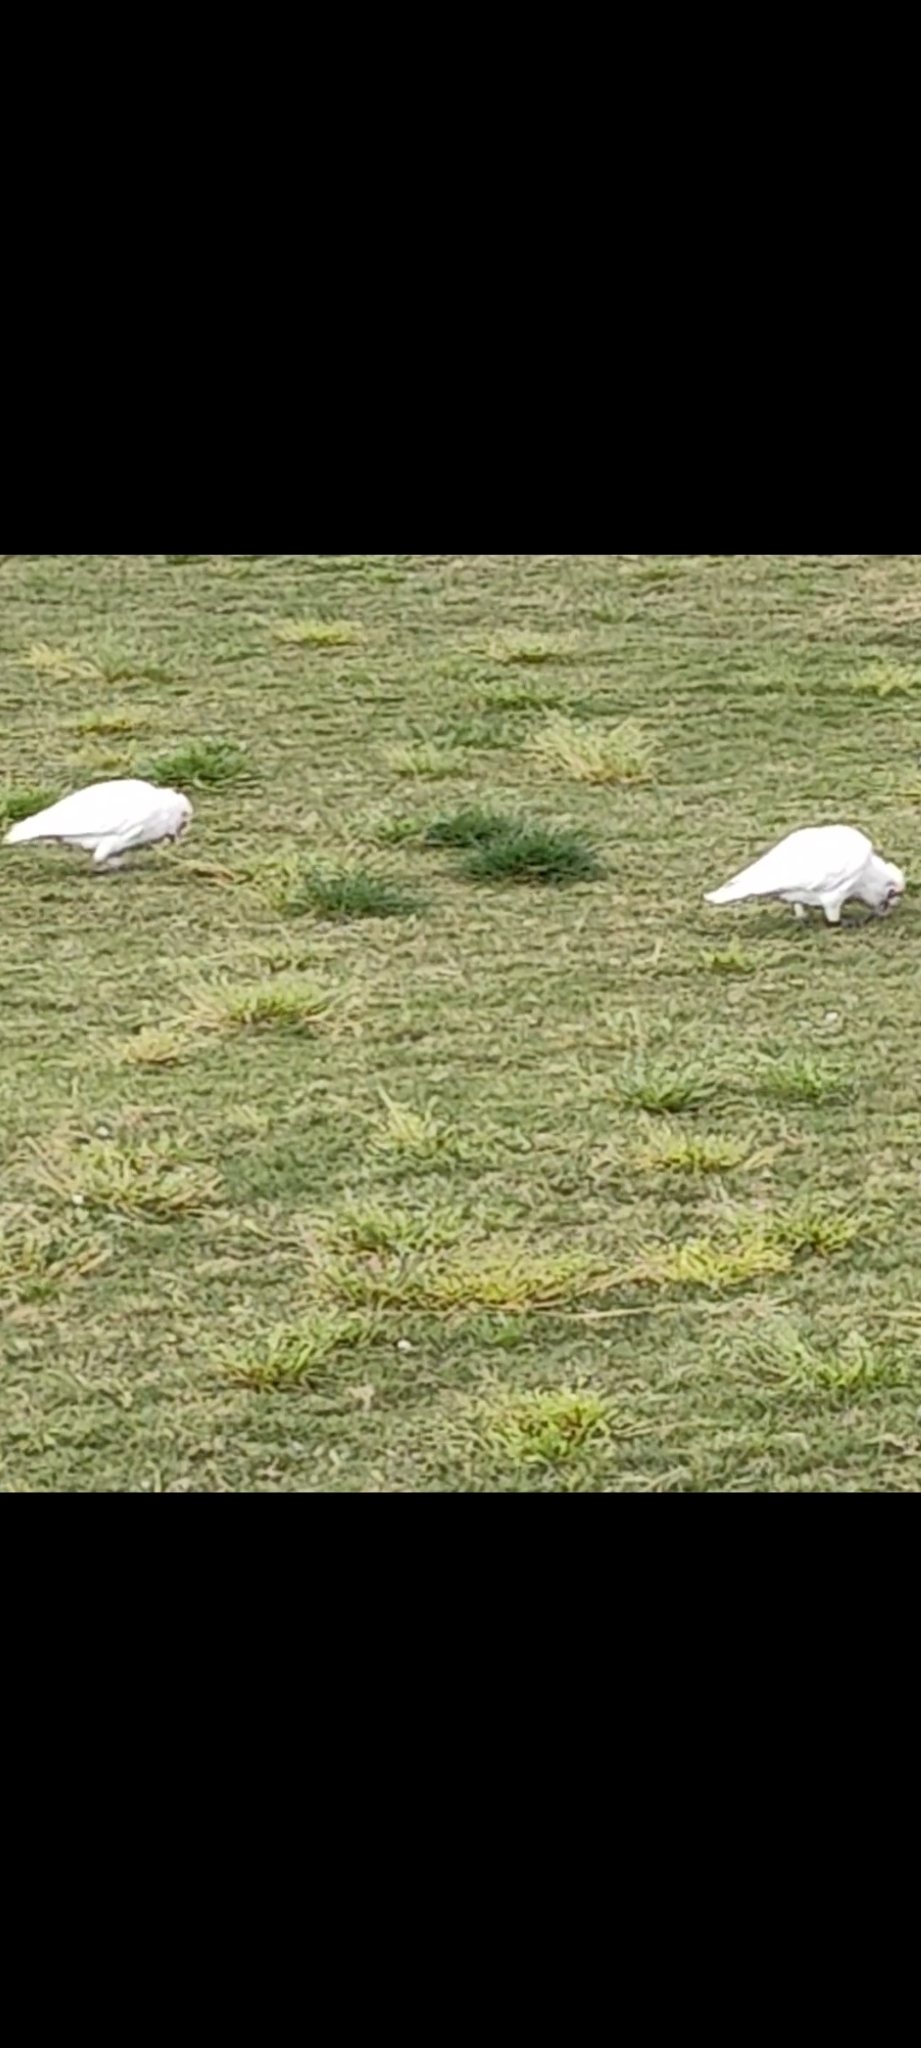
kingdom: Animalia
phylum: Chordata
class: Aves
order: Psittaciformes
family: Psittacidae
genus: Cacatua
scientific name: Cacatua sanguinea
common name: Little corella
